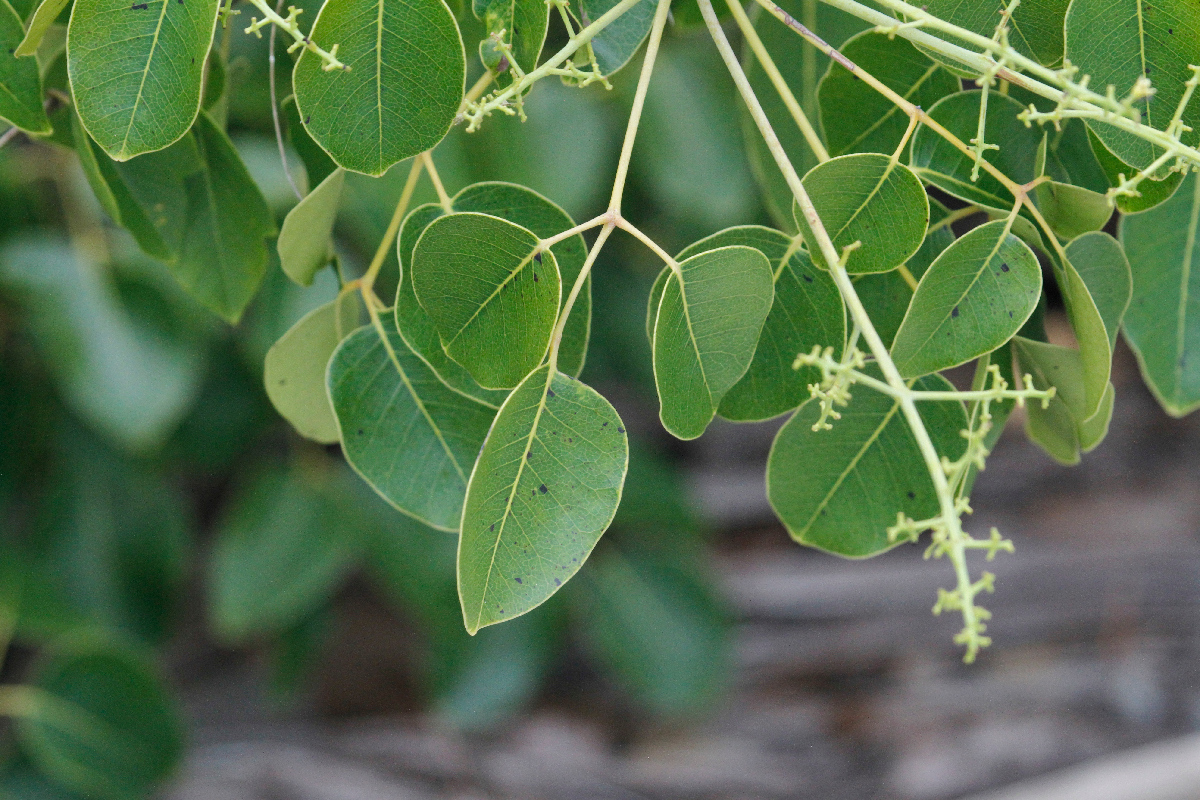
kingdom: Plantae
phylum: Tracheophyta
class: Magnoliopsida
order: Sapindales
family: Anacardiaceae
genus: Metopium
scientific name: Metopium toxiferum
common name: Florida poisontree
